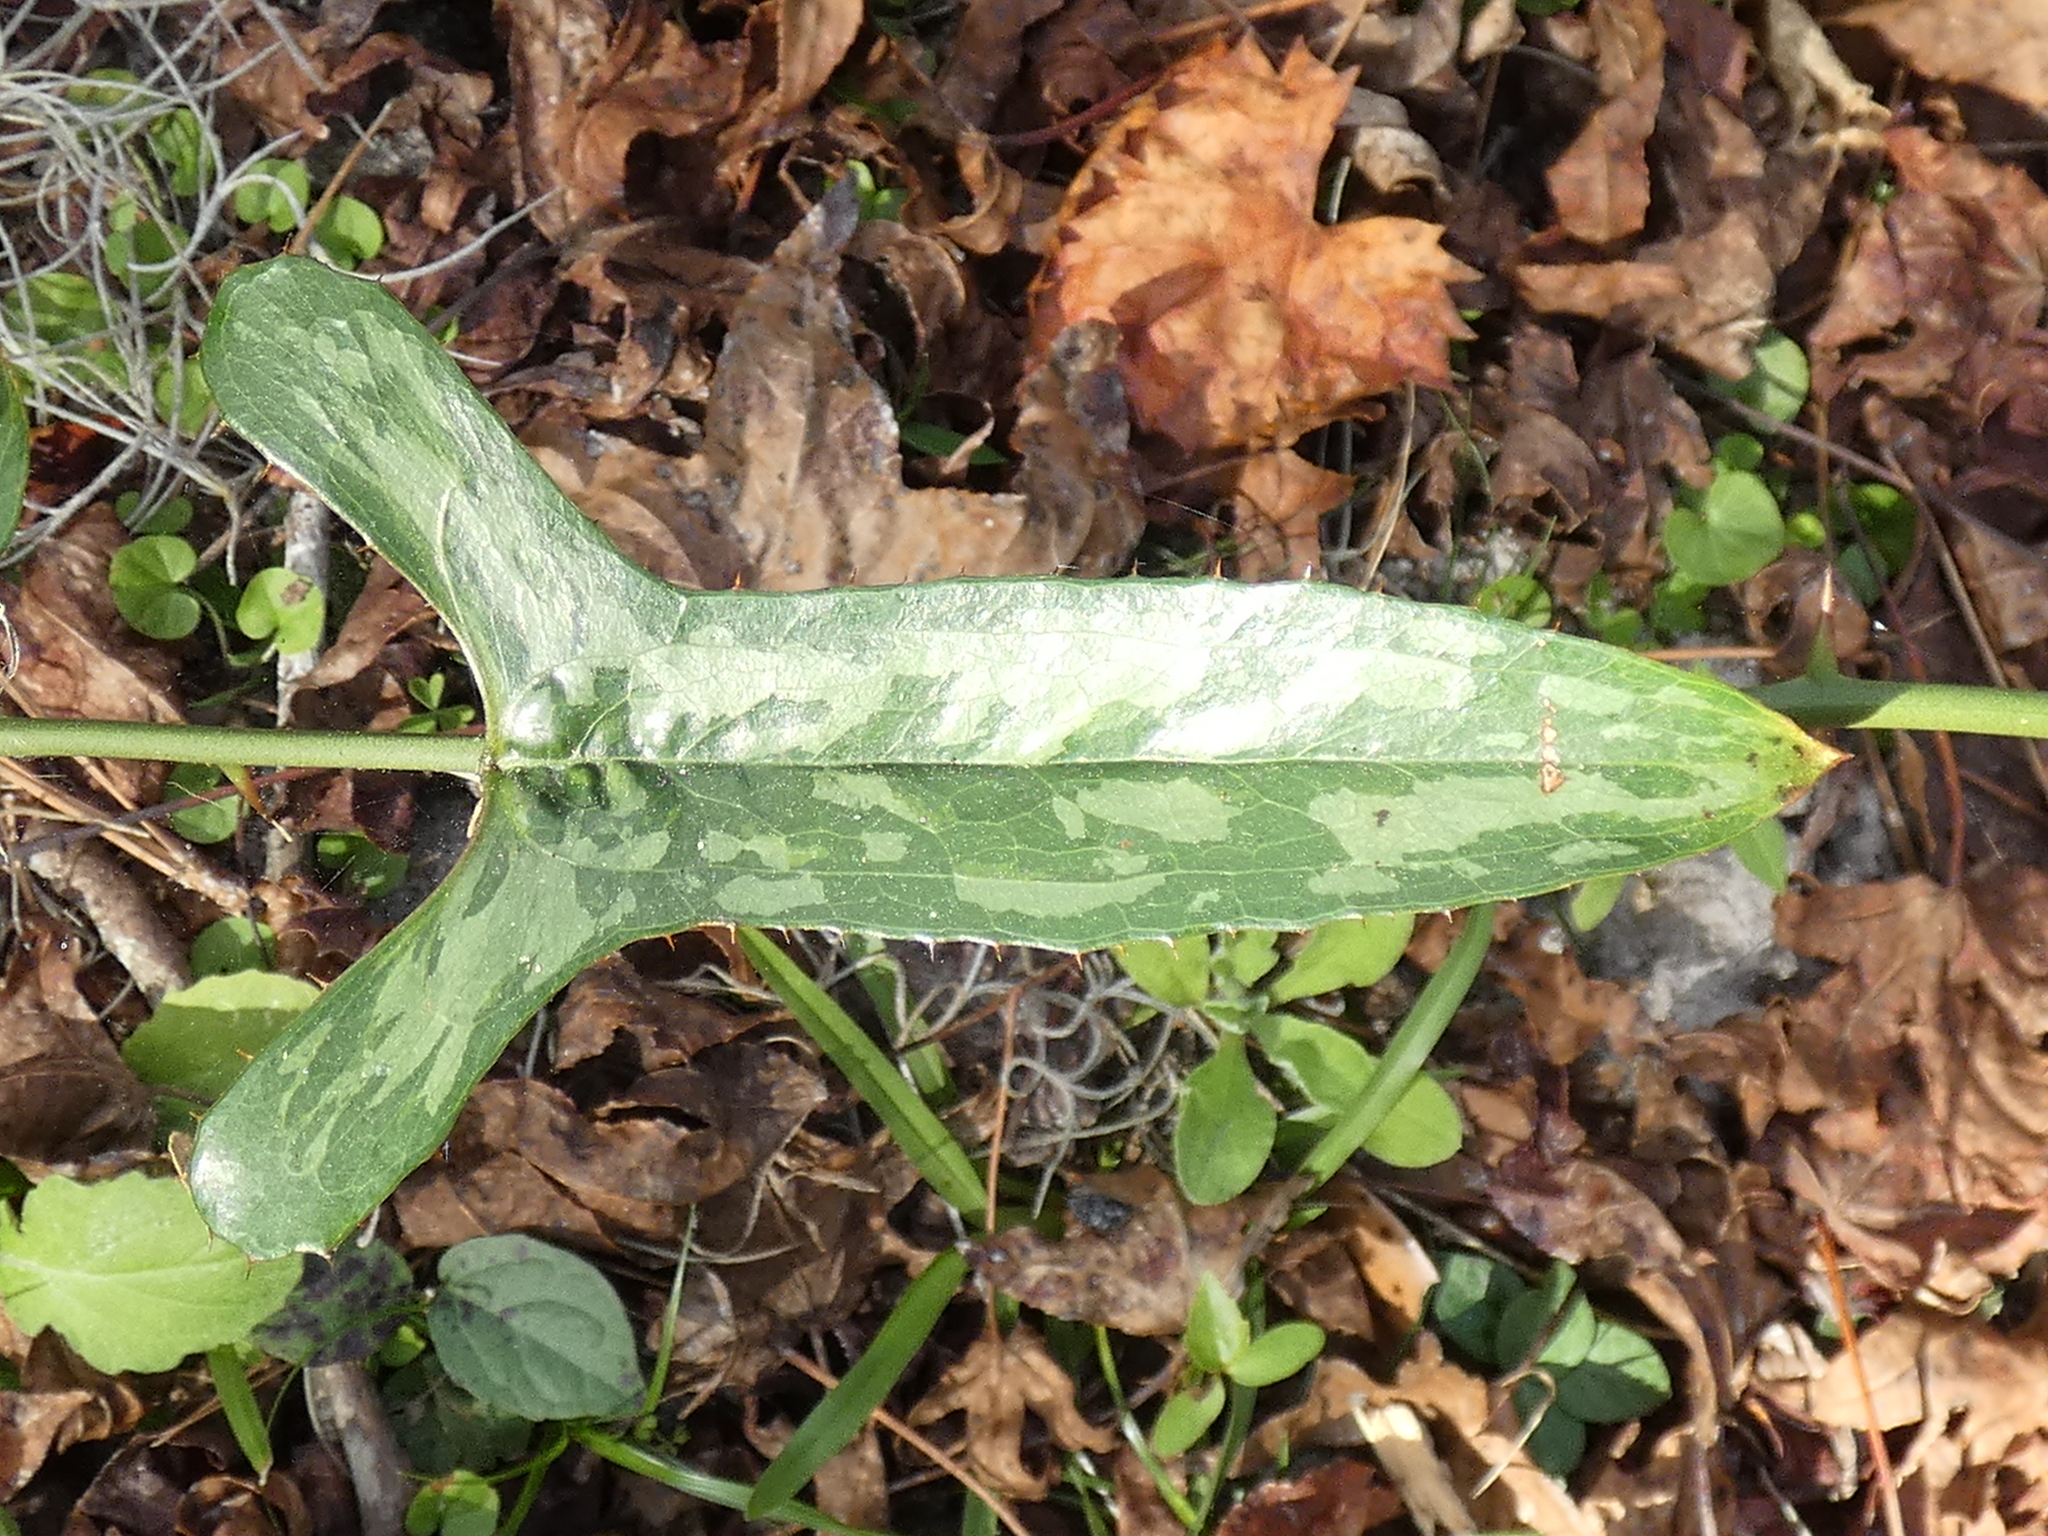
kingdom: Plantae
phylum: Tracheophyta
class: Liliopsida
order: Liliales
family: Smilacaceae
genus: Smilax
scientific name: Smilax bona-nox
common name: Catbrier
